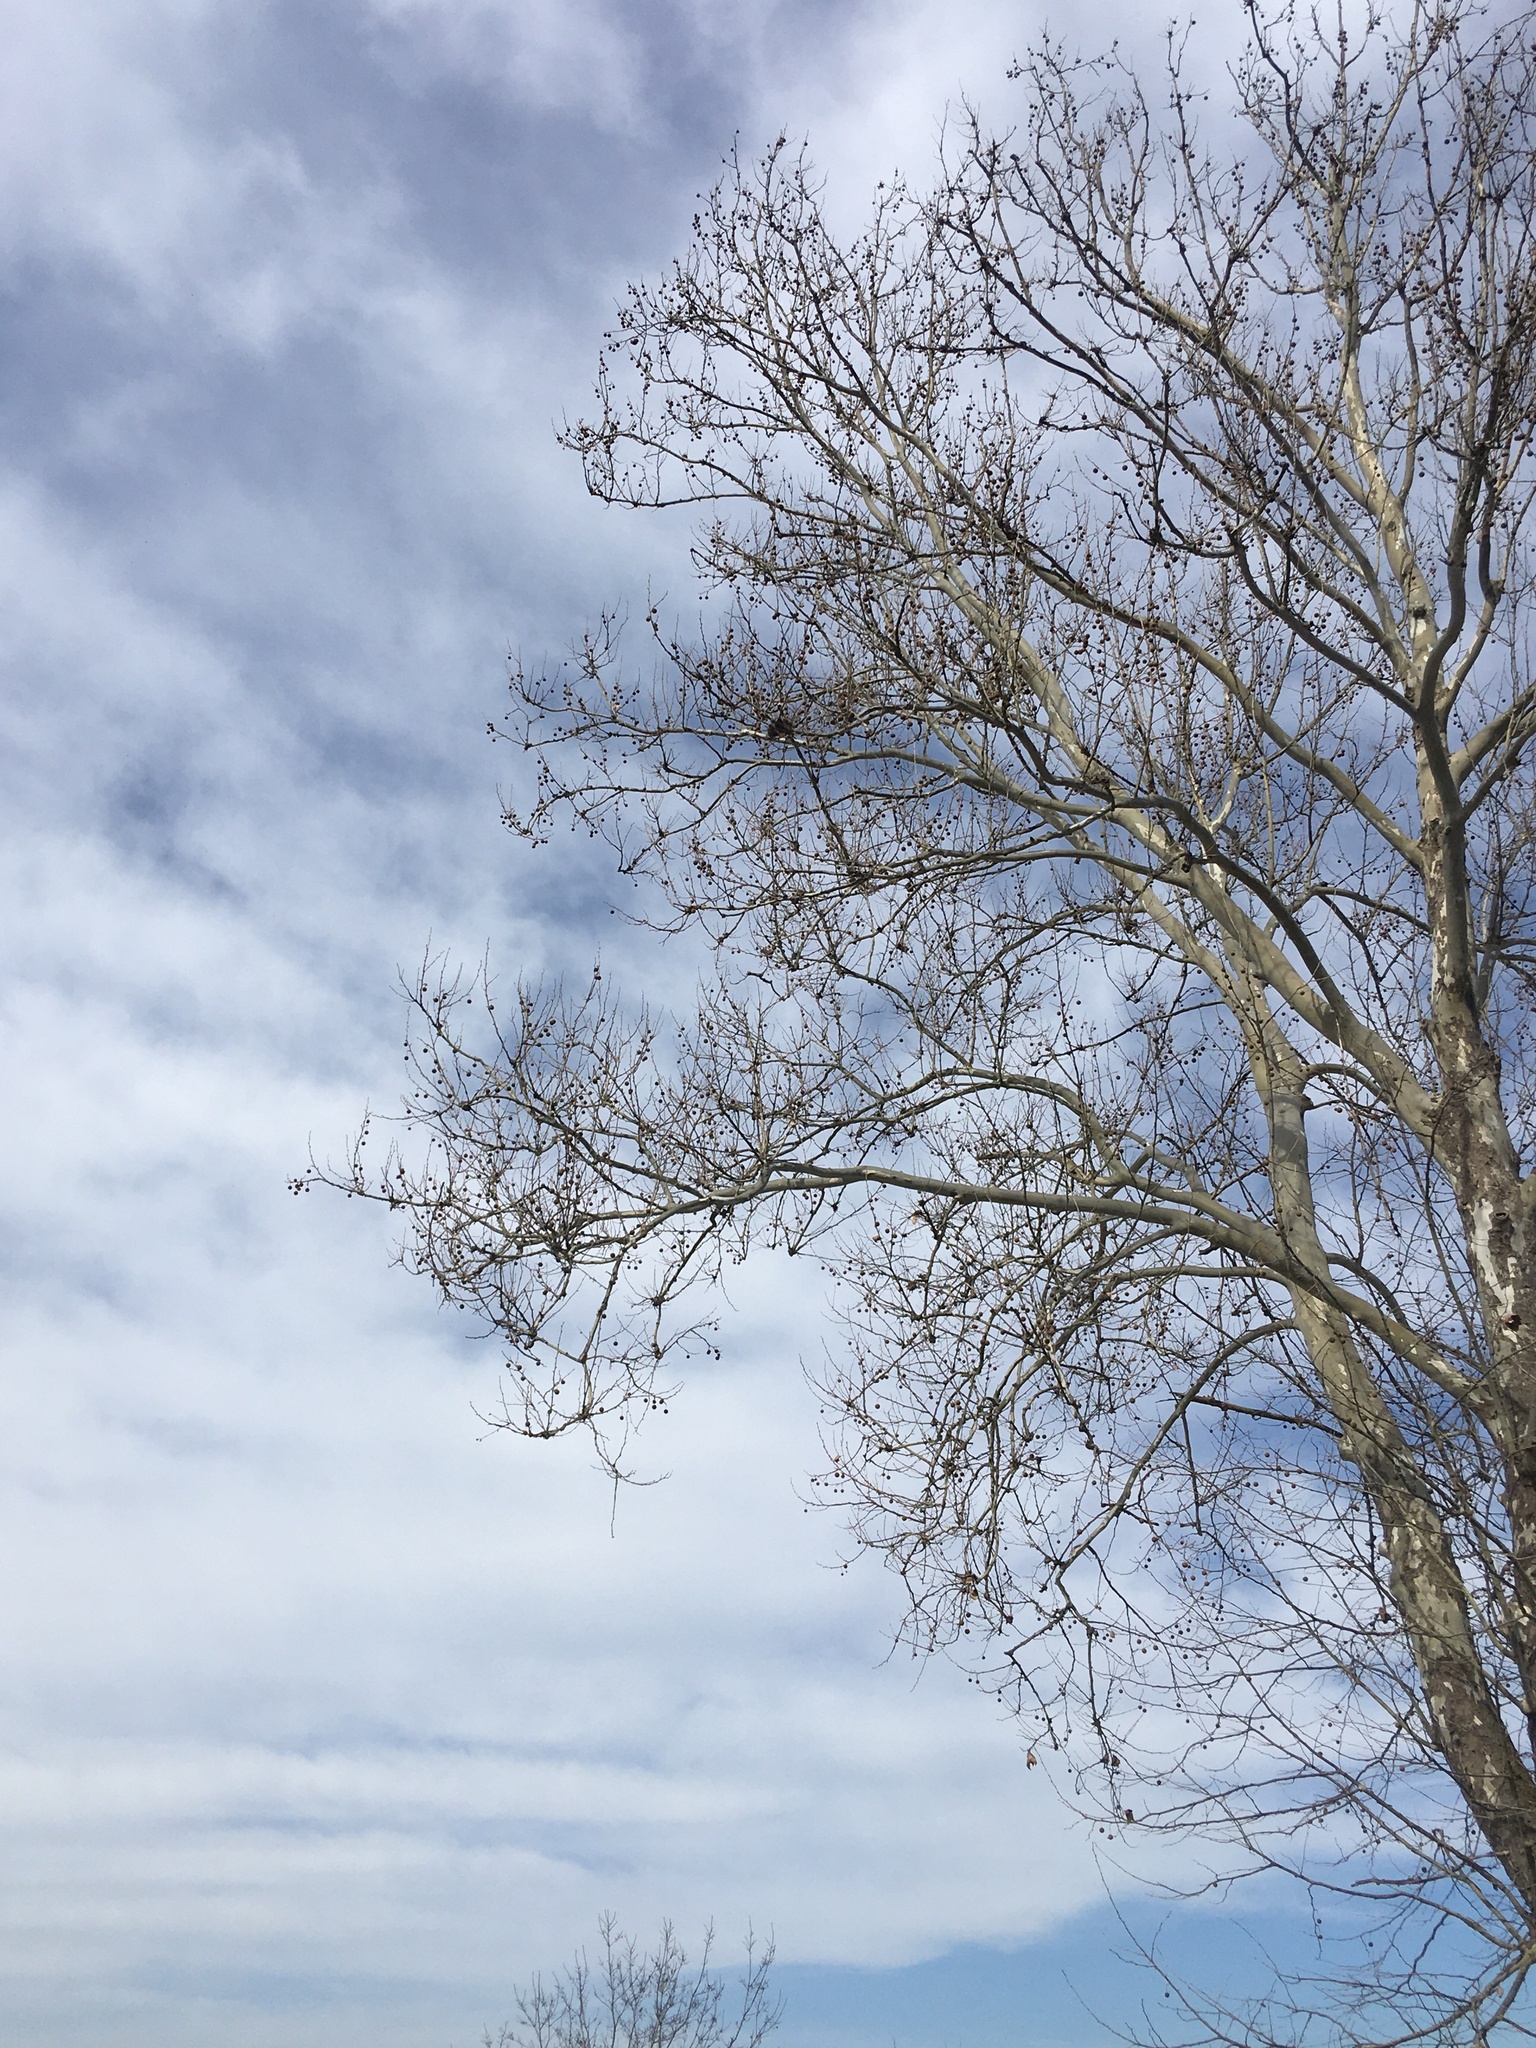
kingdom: Plantae
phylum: Tracheophyta
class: Magnoliopsida
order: Proteales
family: Platanaceae
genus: Platanus
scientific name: Platanus occidentalis
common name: American sycamore
